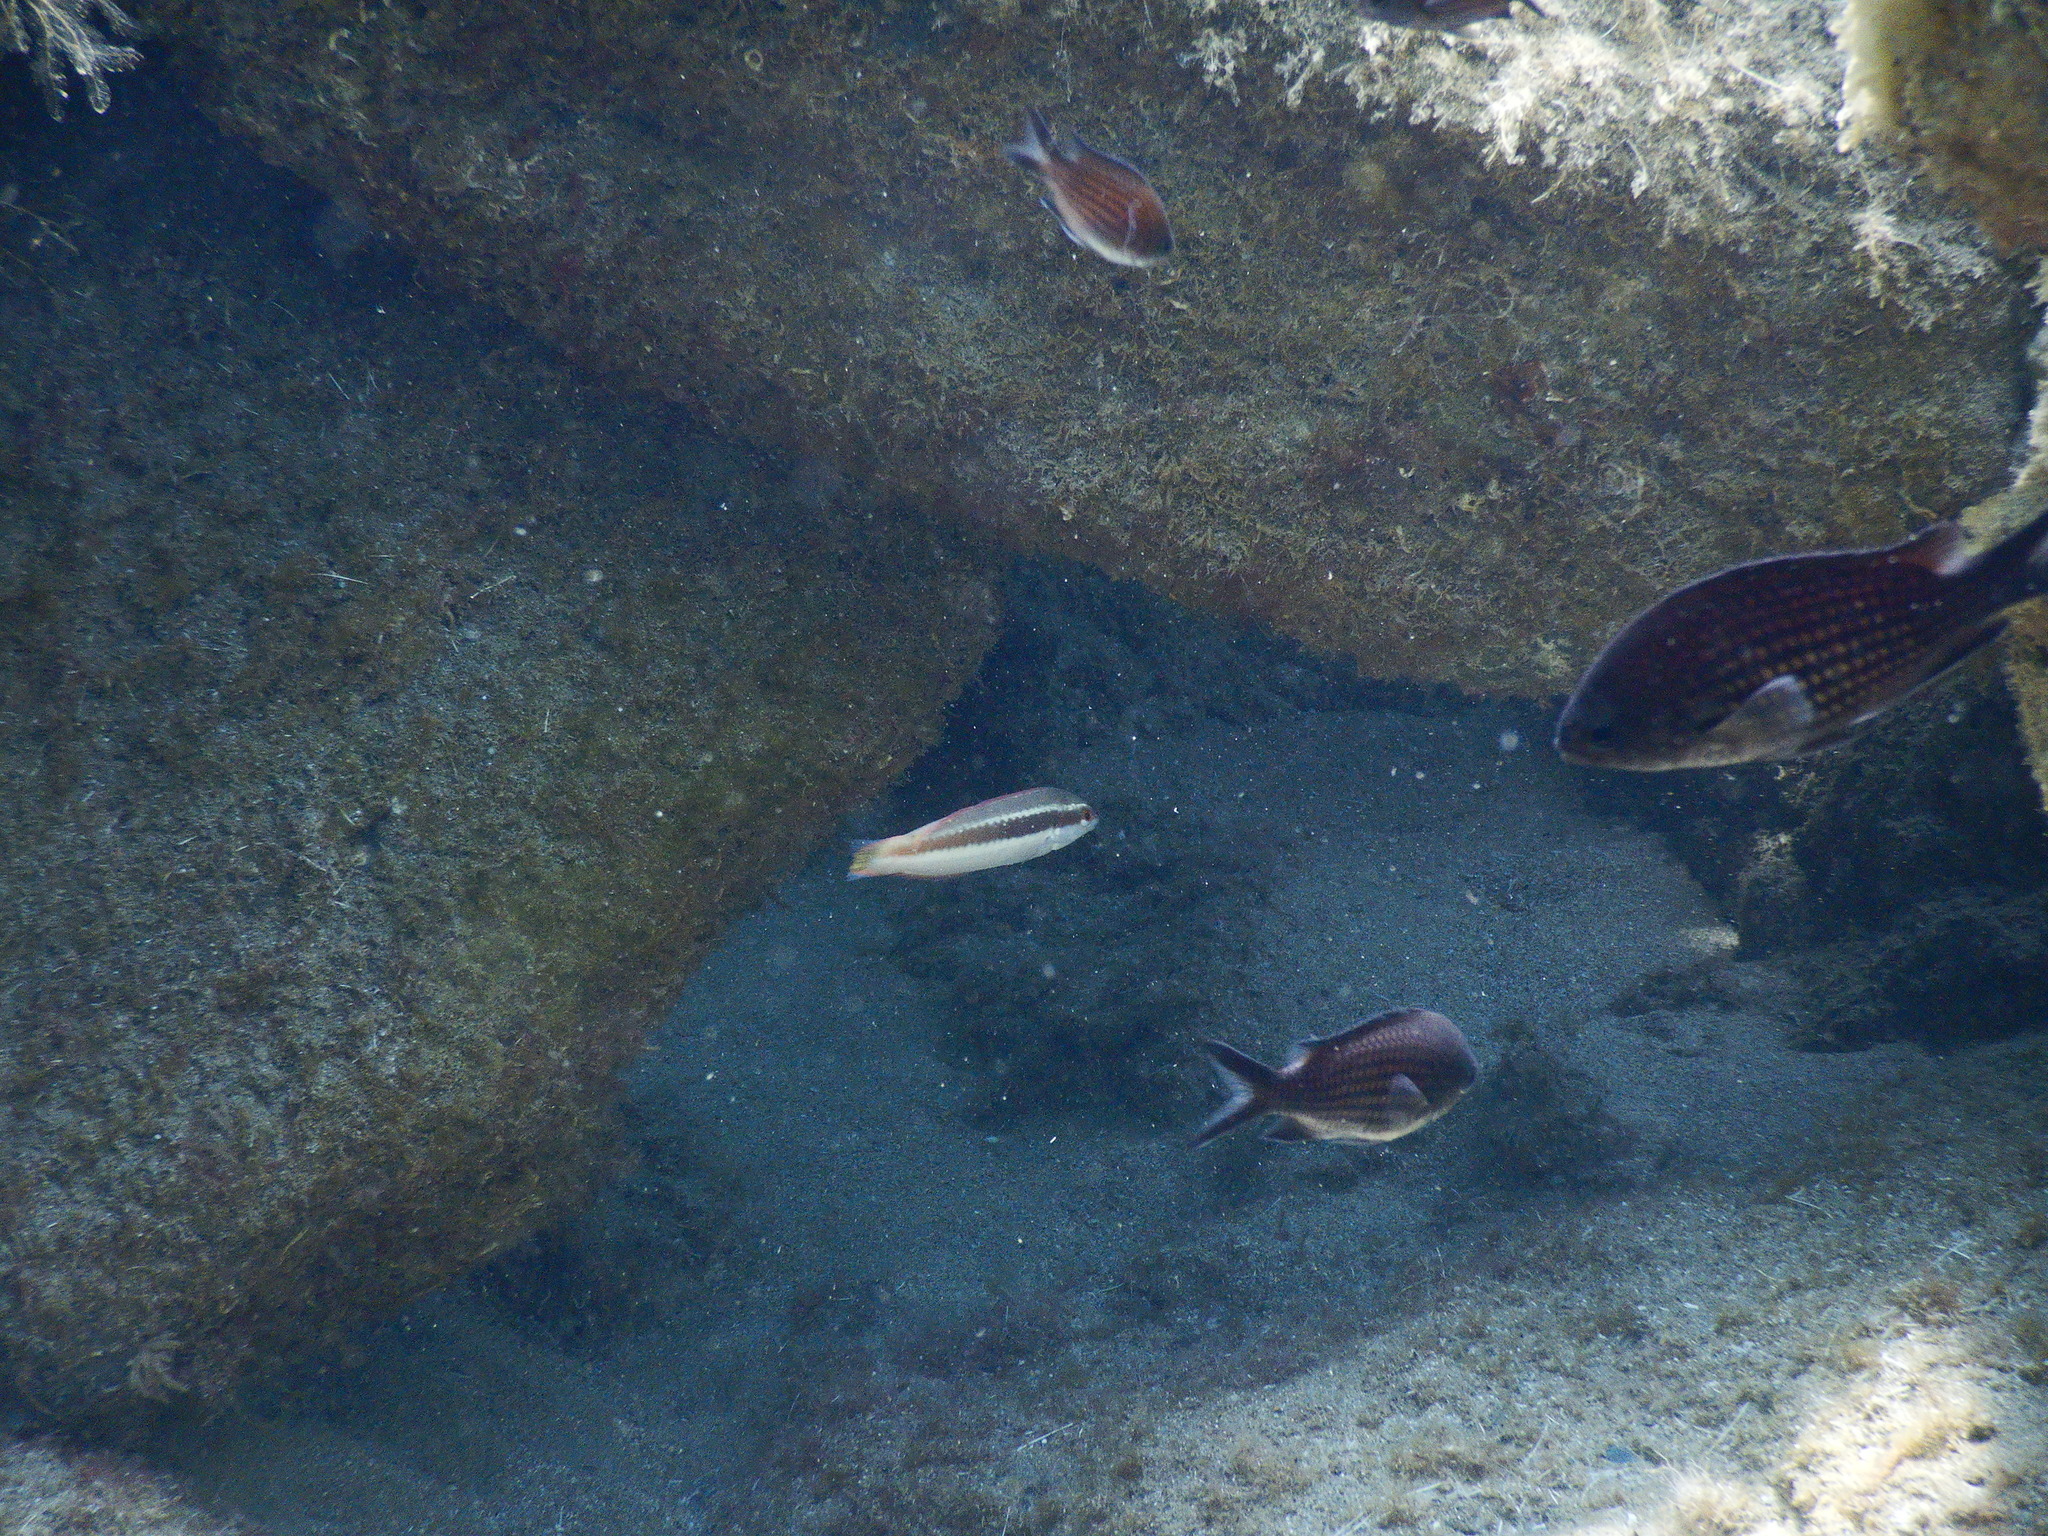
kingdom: Animalia
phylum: Chordata
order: Perciformes
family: Pomacentridae
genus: Chromis
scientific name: Chromis chromis
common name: Damselfish
